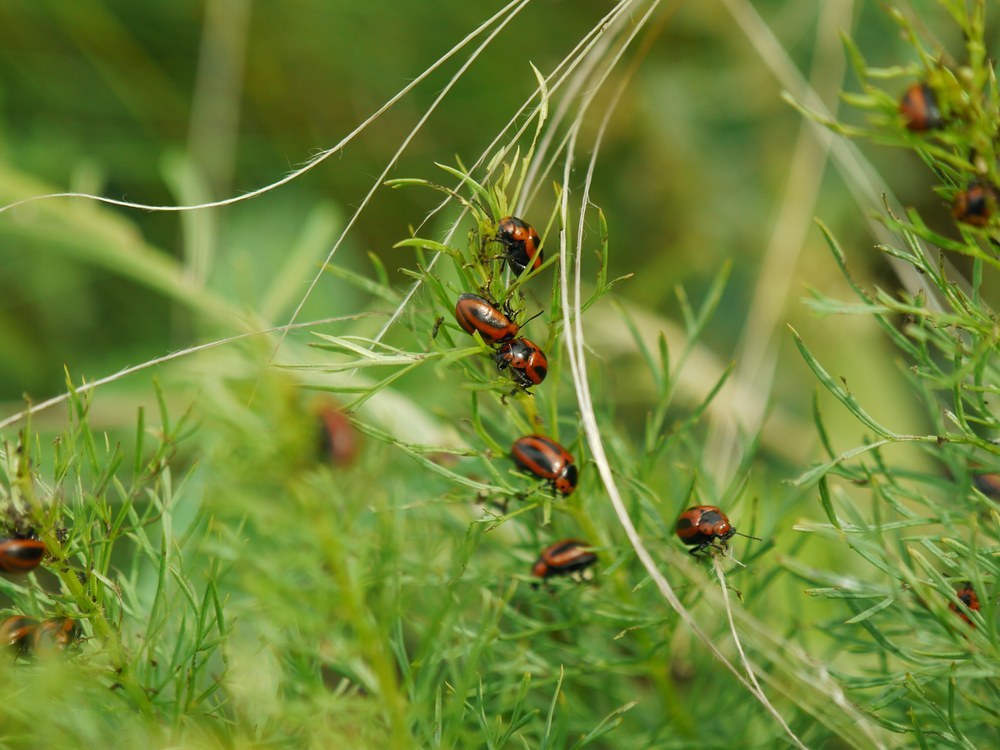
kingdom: Animalia
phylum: Arthropoda
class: Insecta
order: Coleoptera
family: Chrysomelidae
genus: Entomoscelis
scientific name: Entomoscelis adonidis
